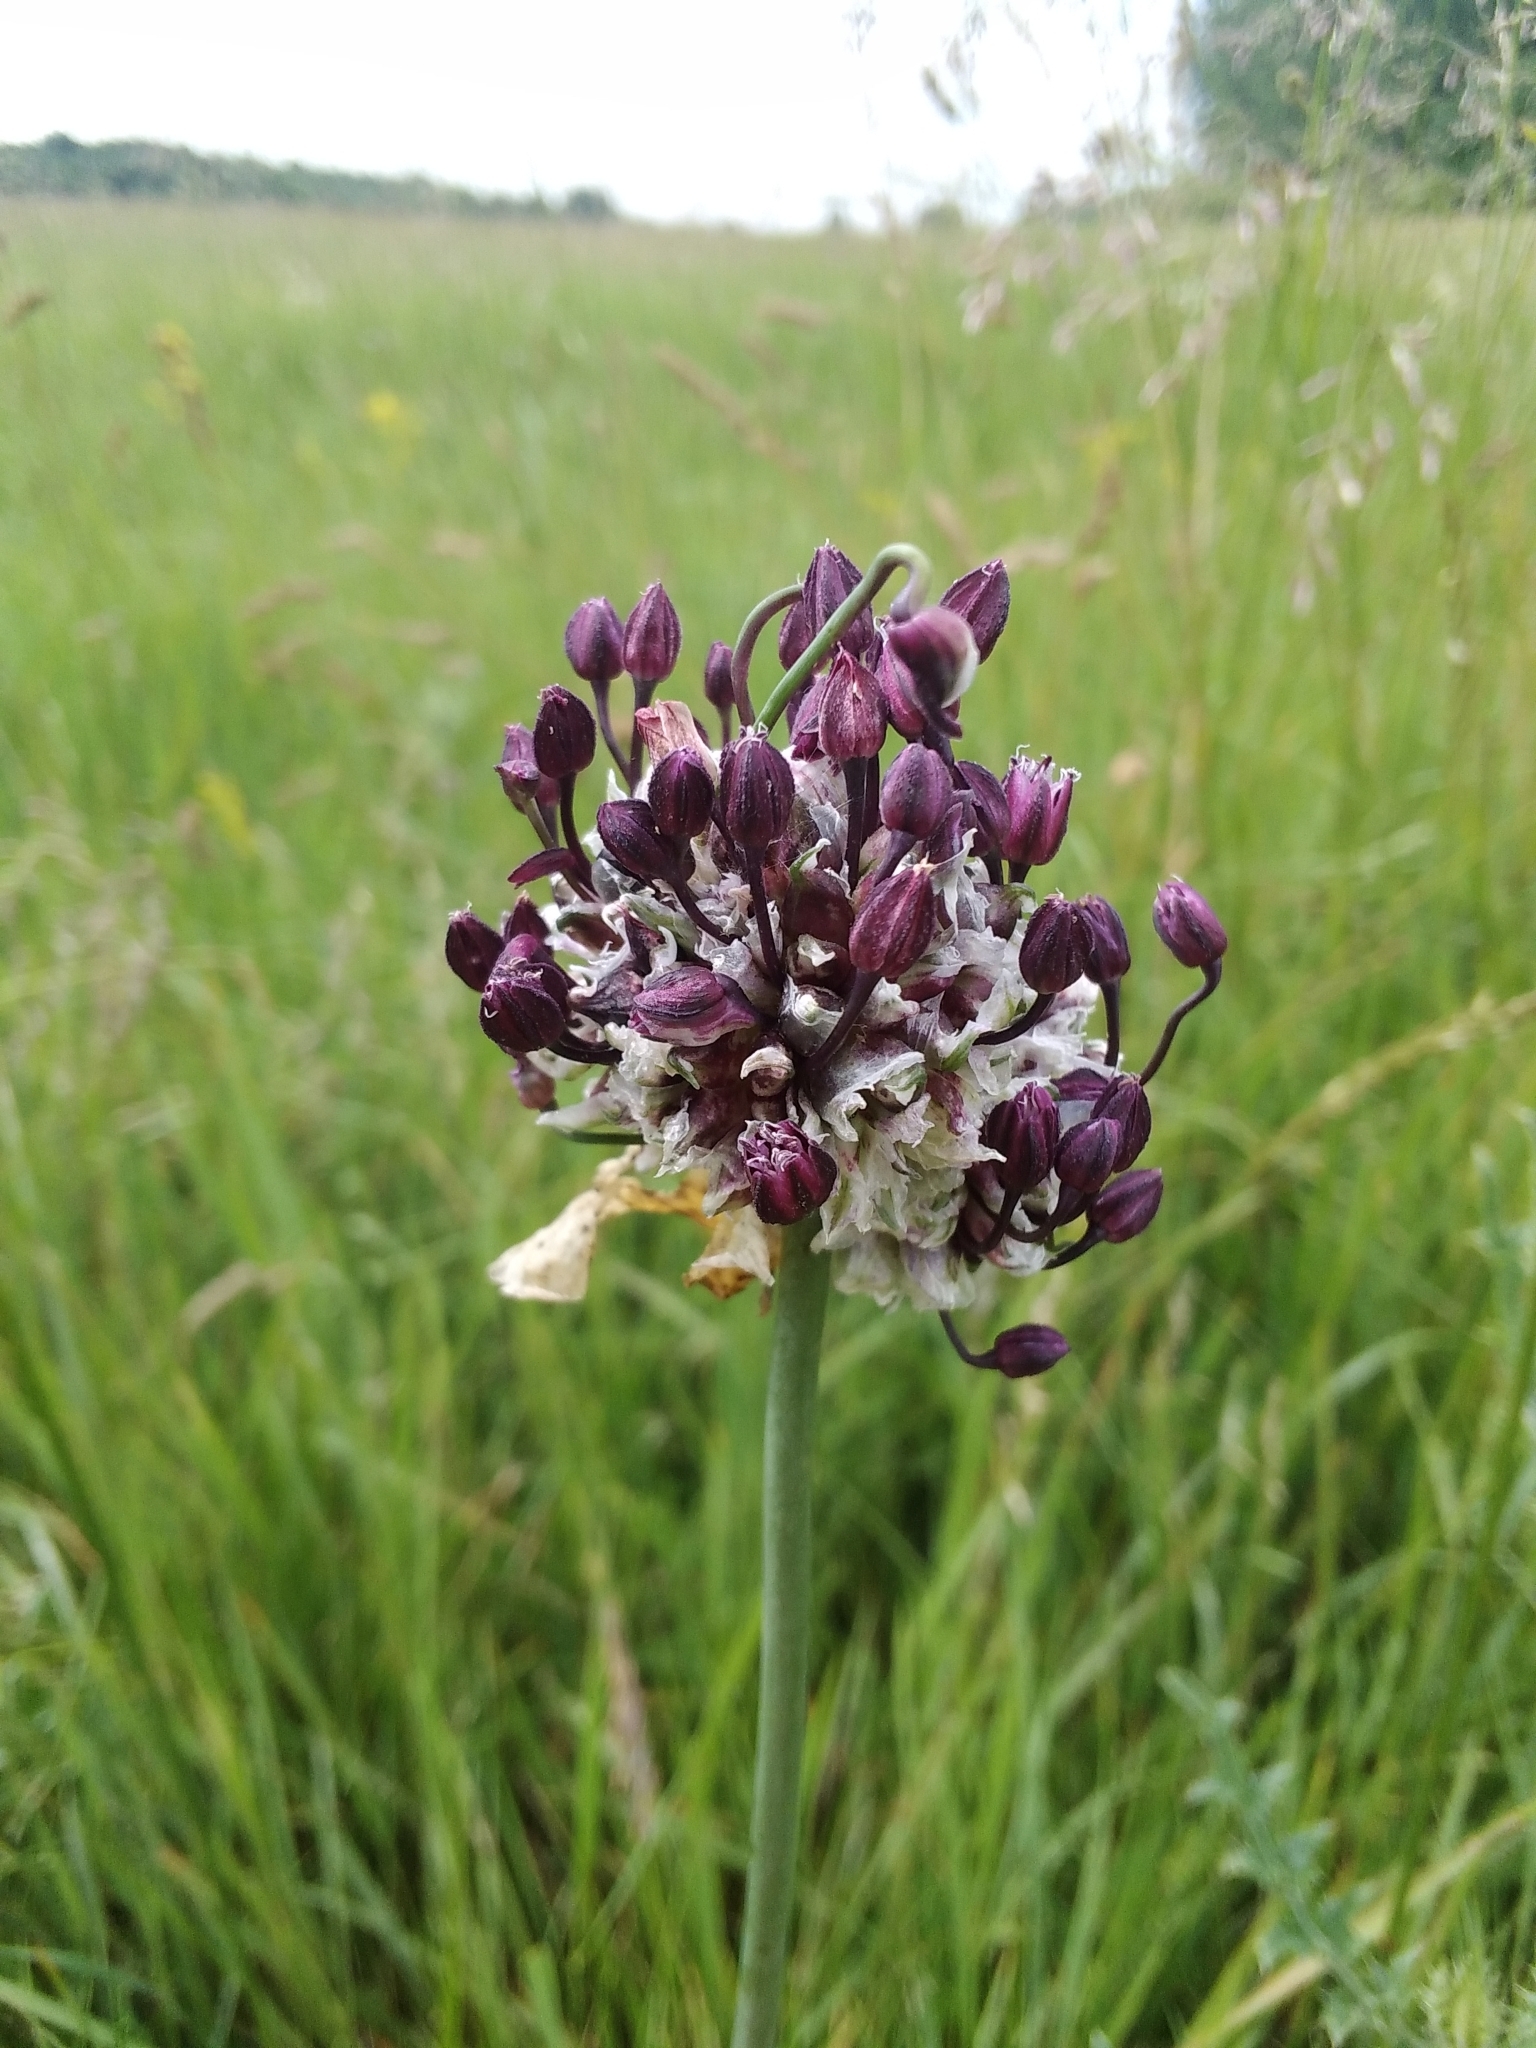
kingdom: Plantae
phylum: Tracheophyta
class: Liliopsida
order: Asparagales
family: Amaryllidaceae
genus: Allium
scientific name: Allium scorodoprasum
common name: Sand leek
